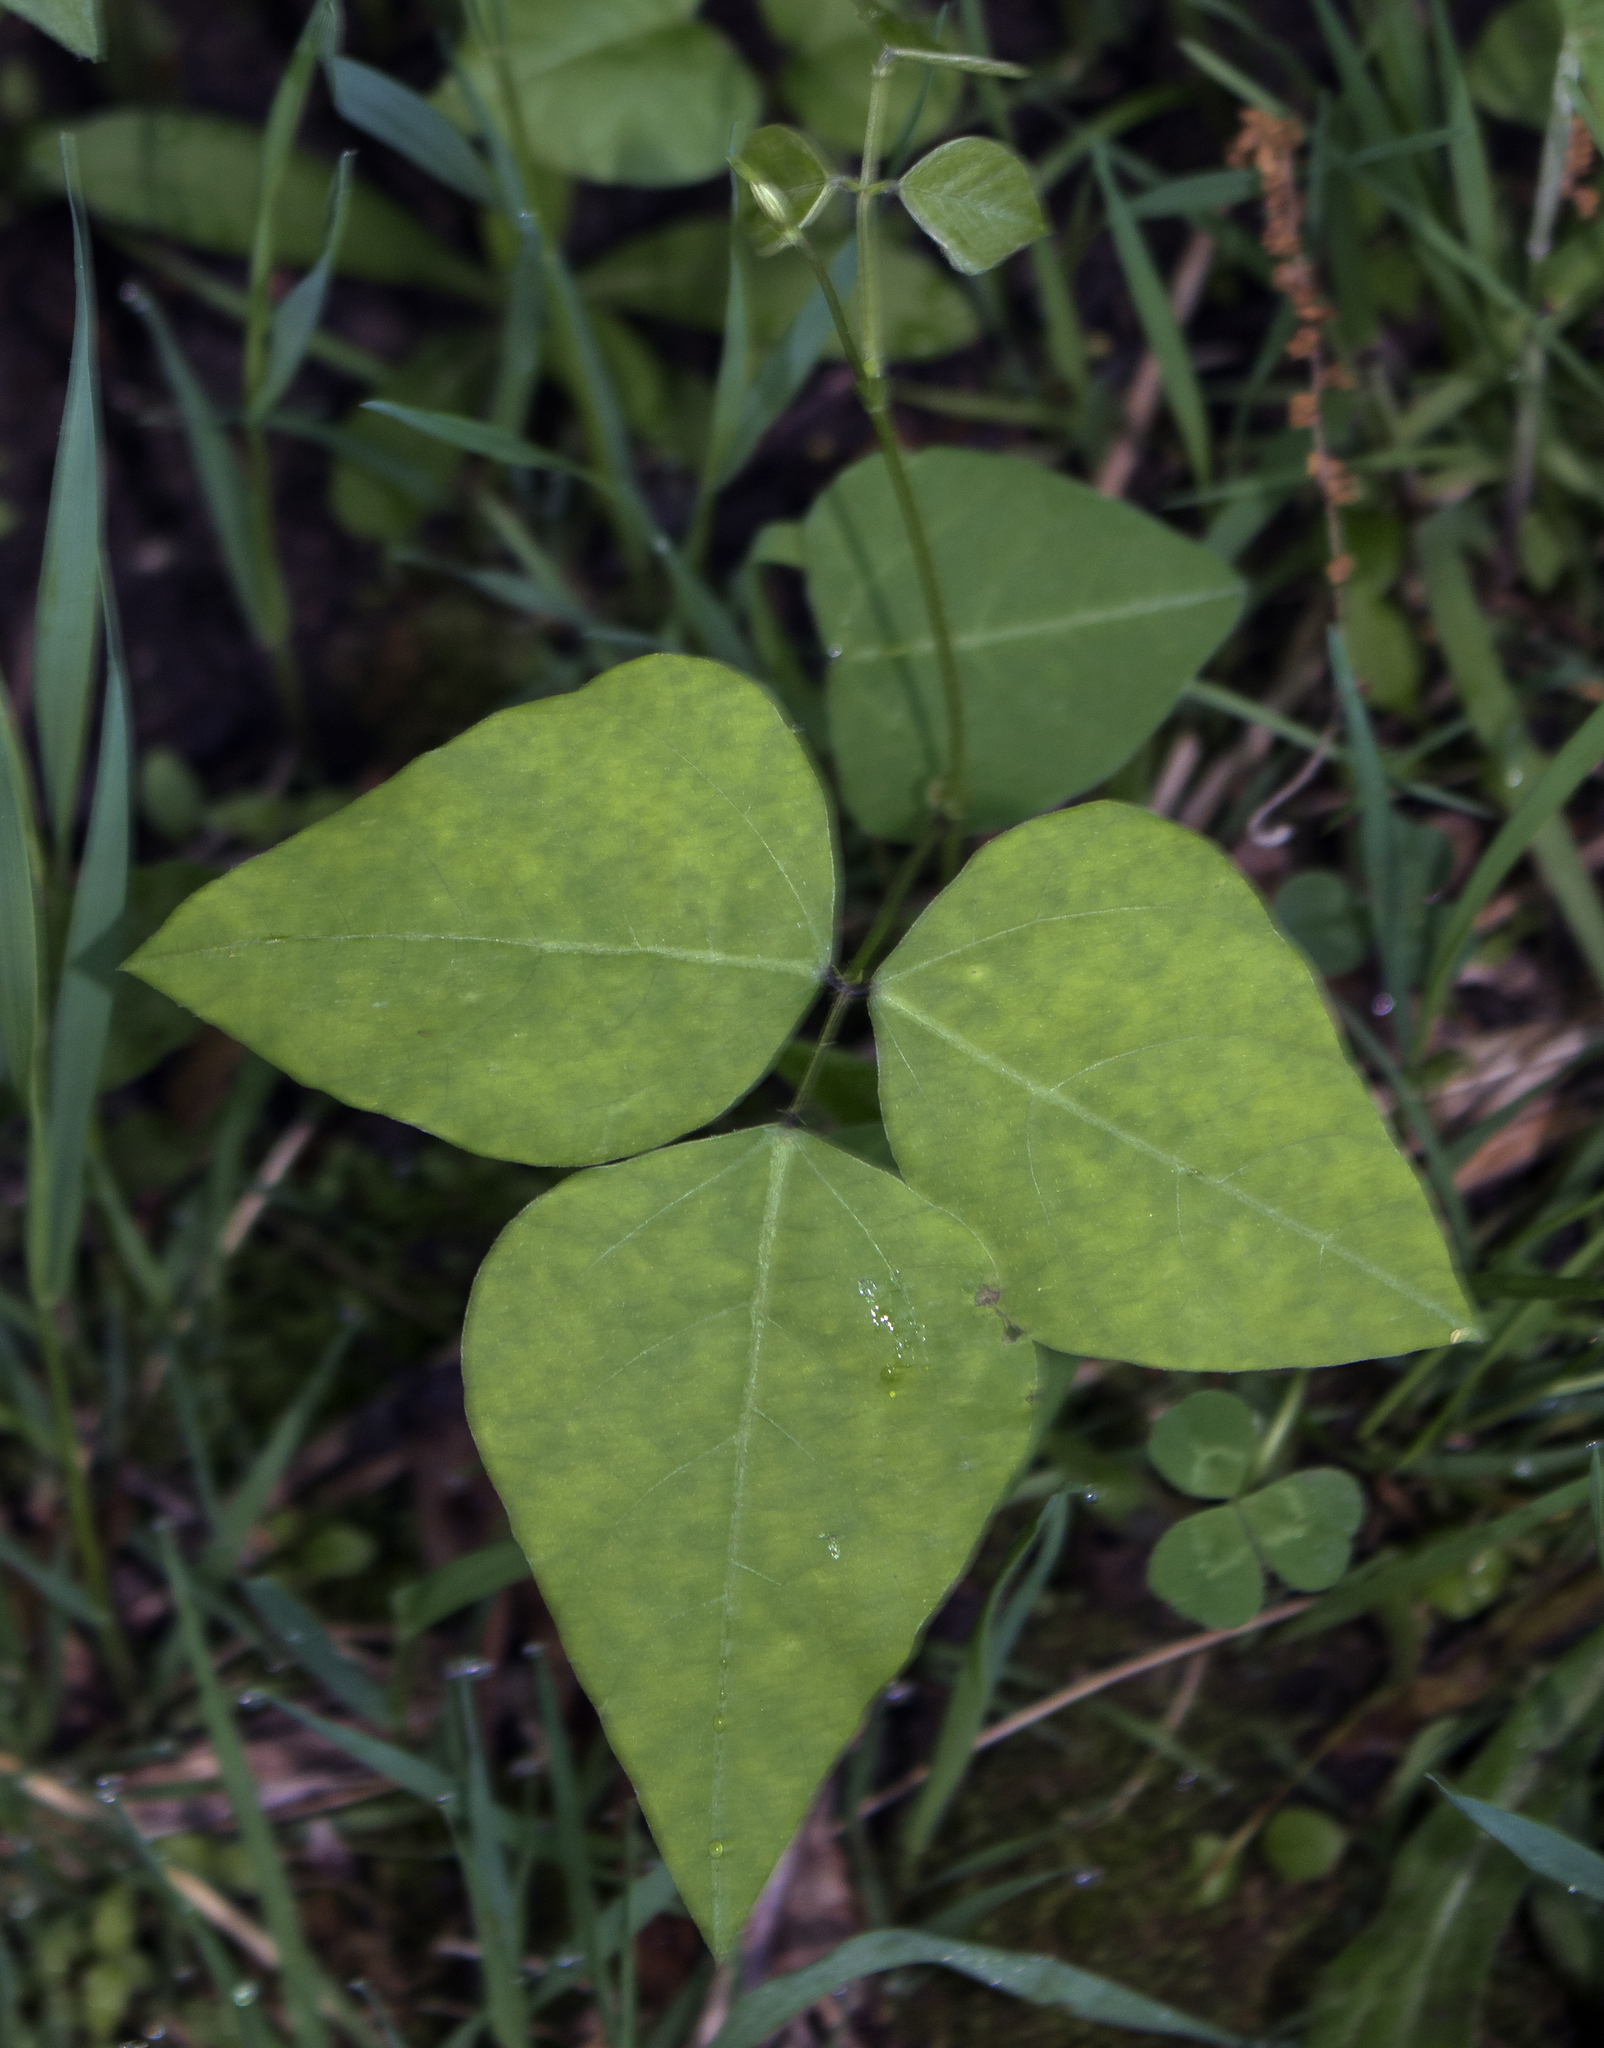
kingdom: Plantae
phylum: Tracheophyta
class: Magnoliopsida
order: Fabales
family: Fabaceae
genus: Amphicarpaea
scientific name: Amphicarpaea bracteata
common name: American hog peanut
